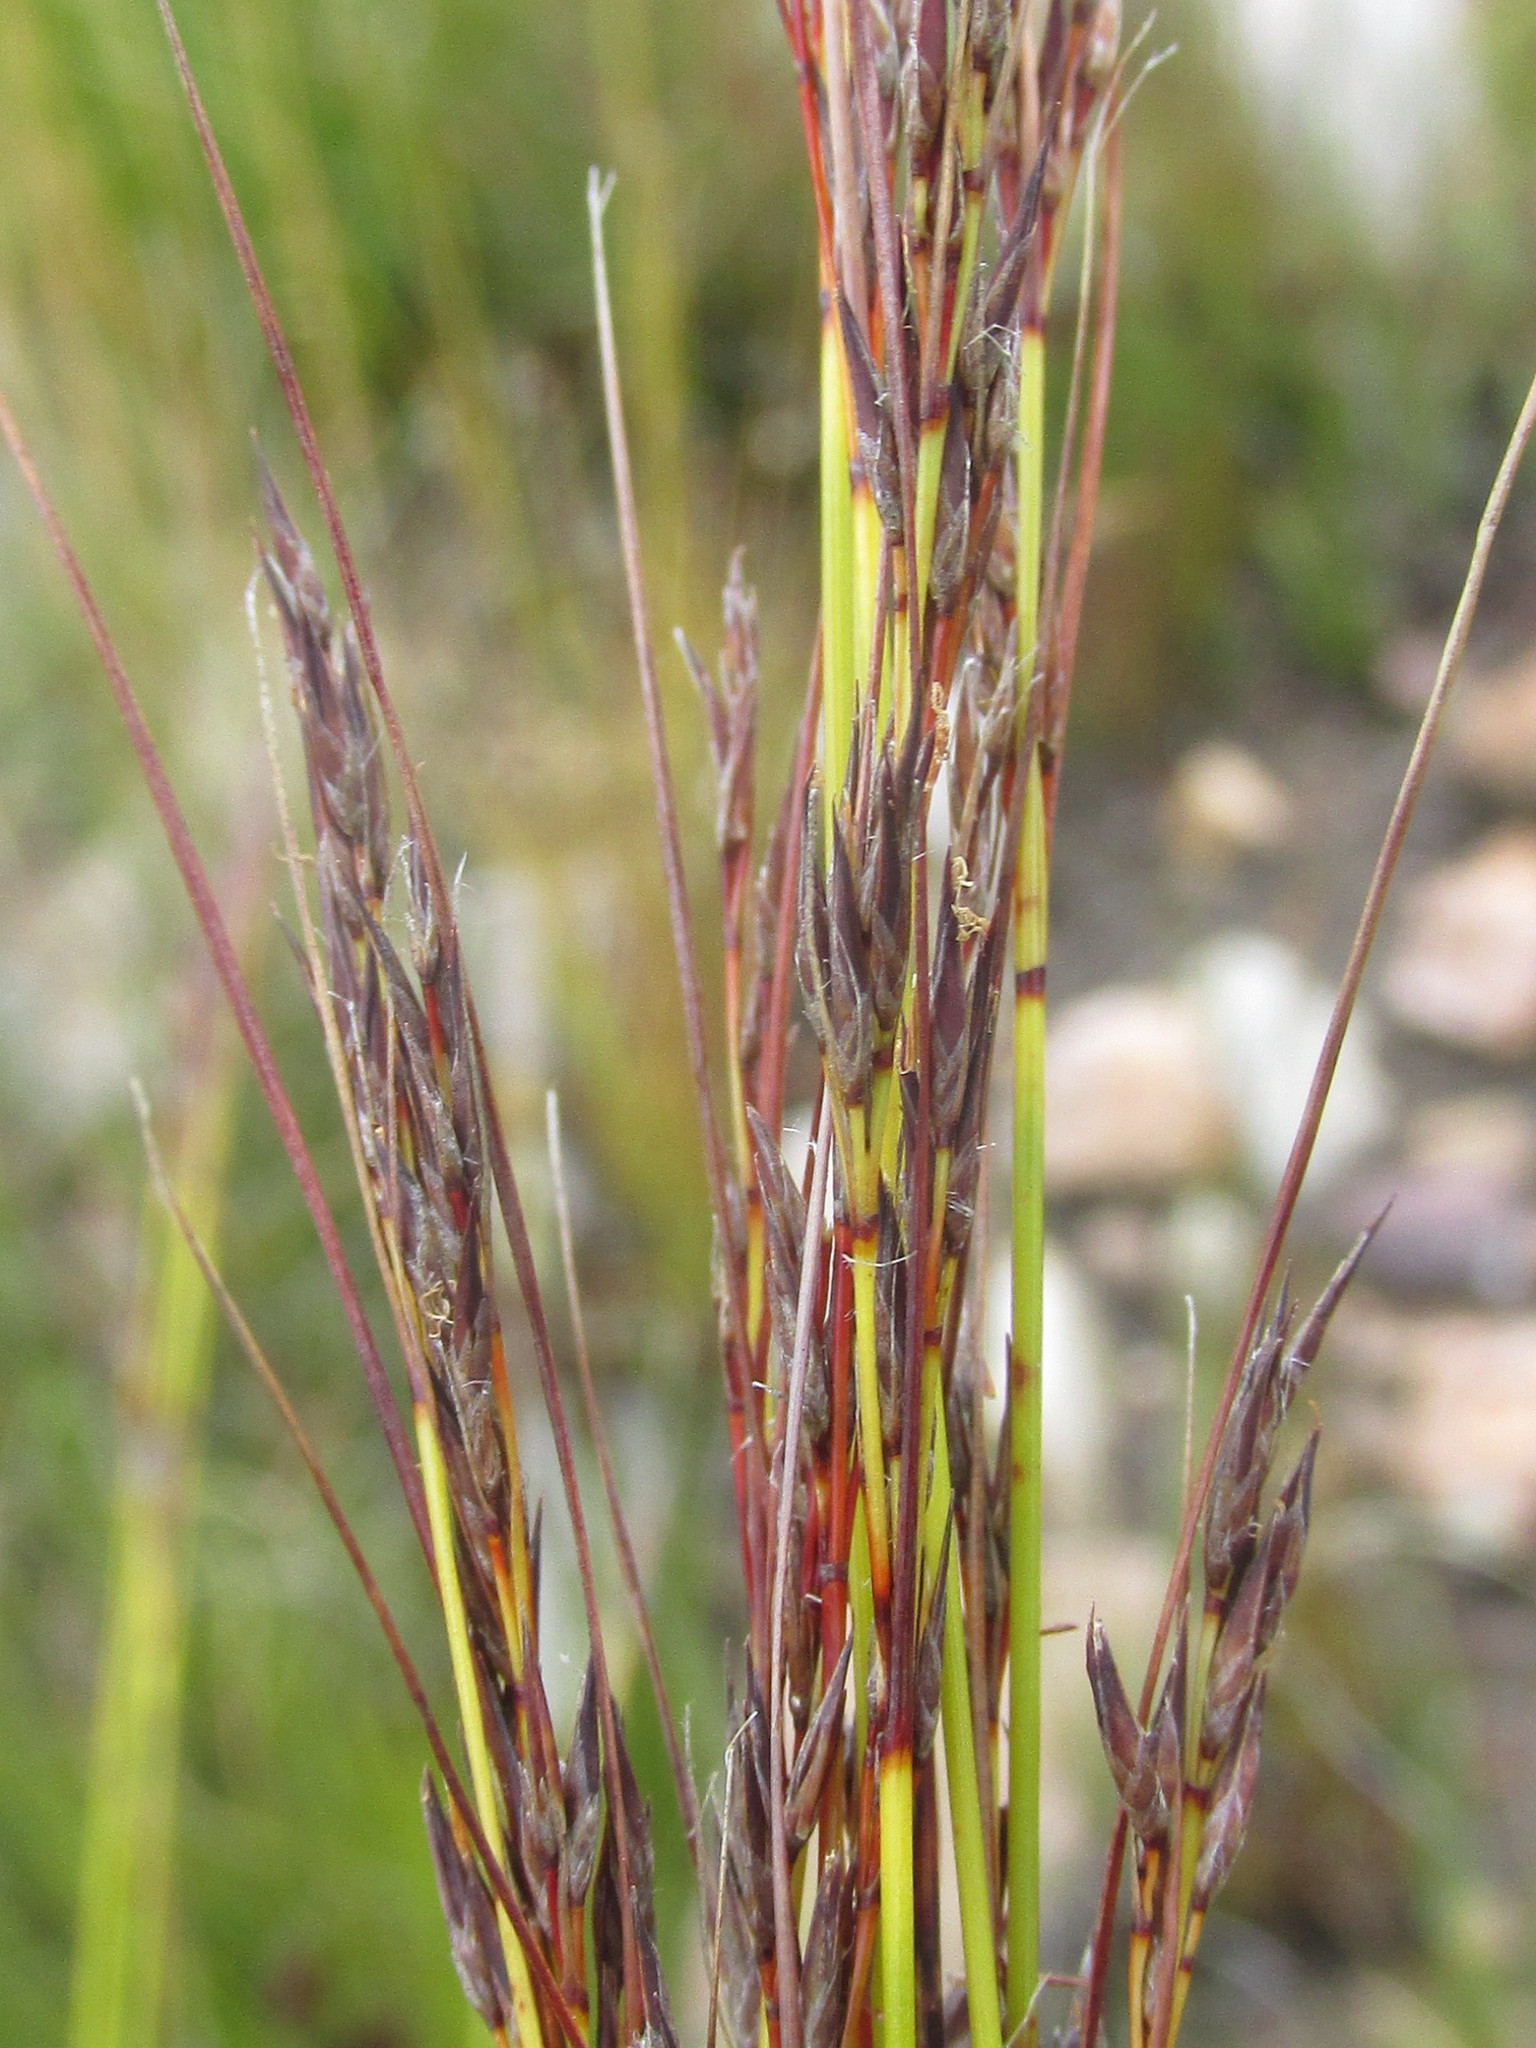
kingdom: Plantae
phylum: Tracheophyta
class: Liliopsida
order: Poales
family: Cyperaceae
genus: Schoenus
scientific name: Schoenus graciliculmis
